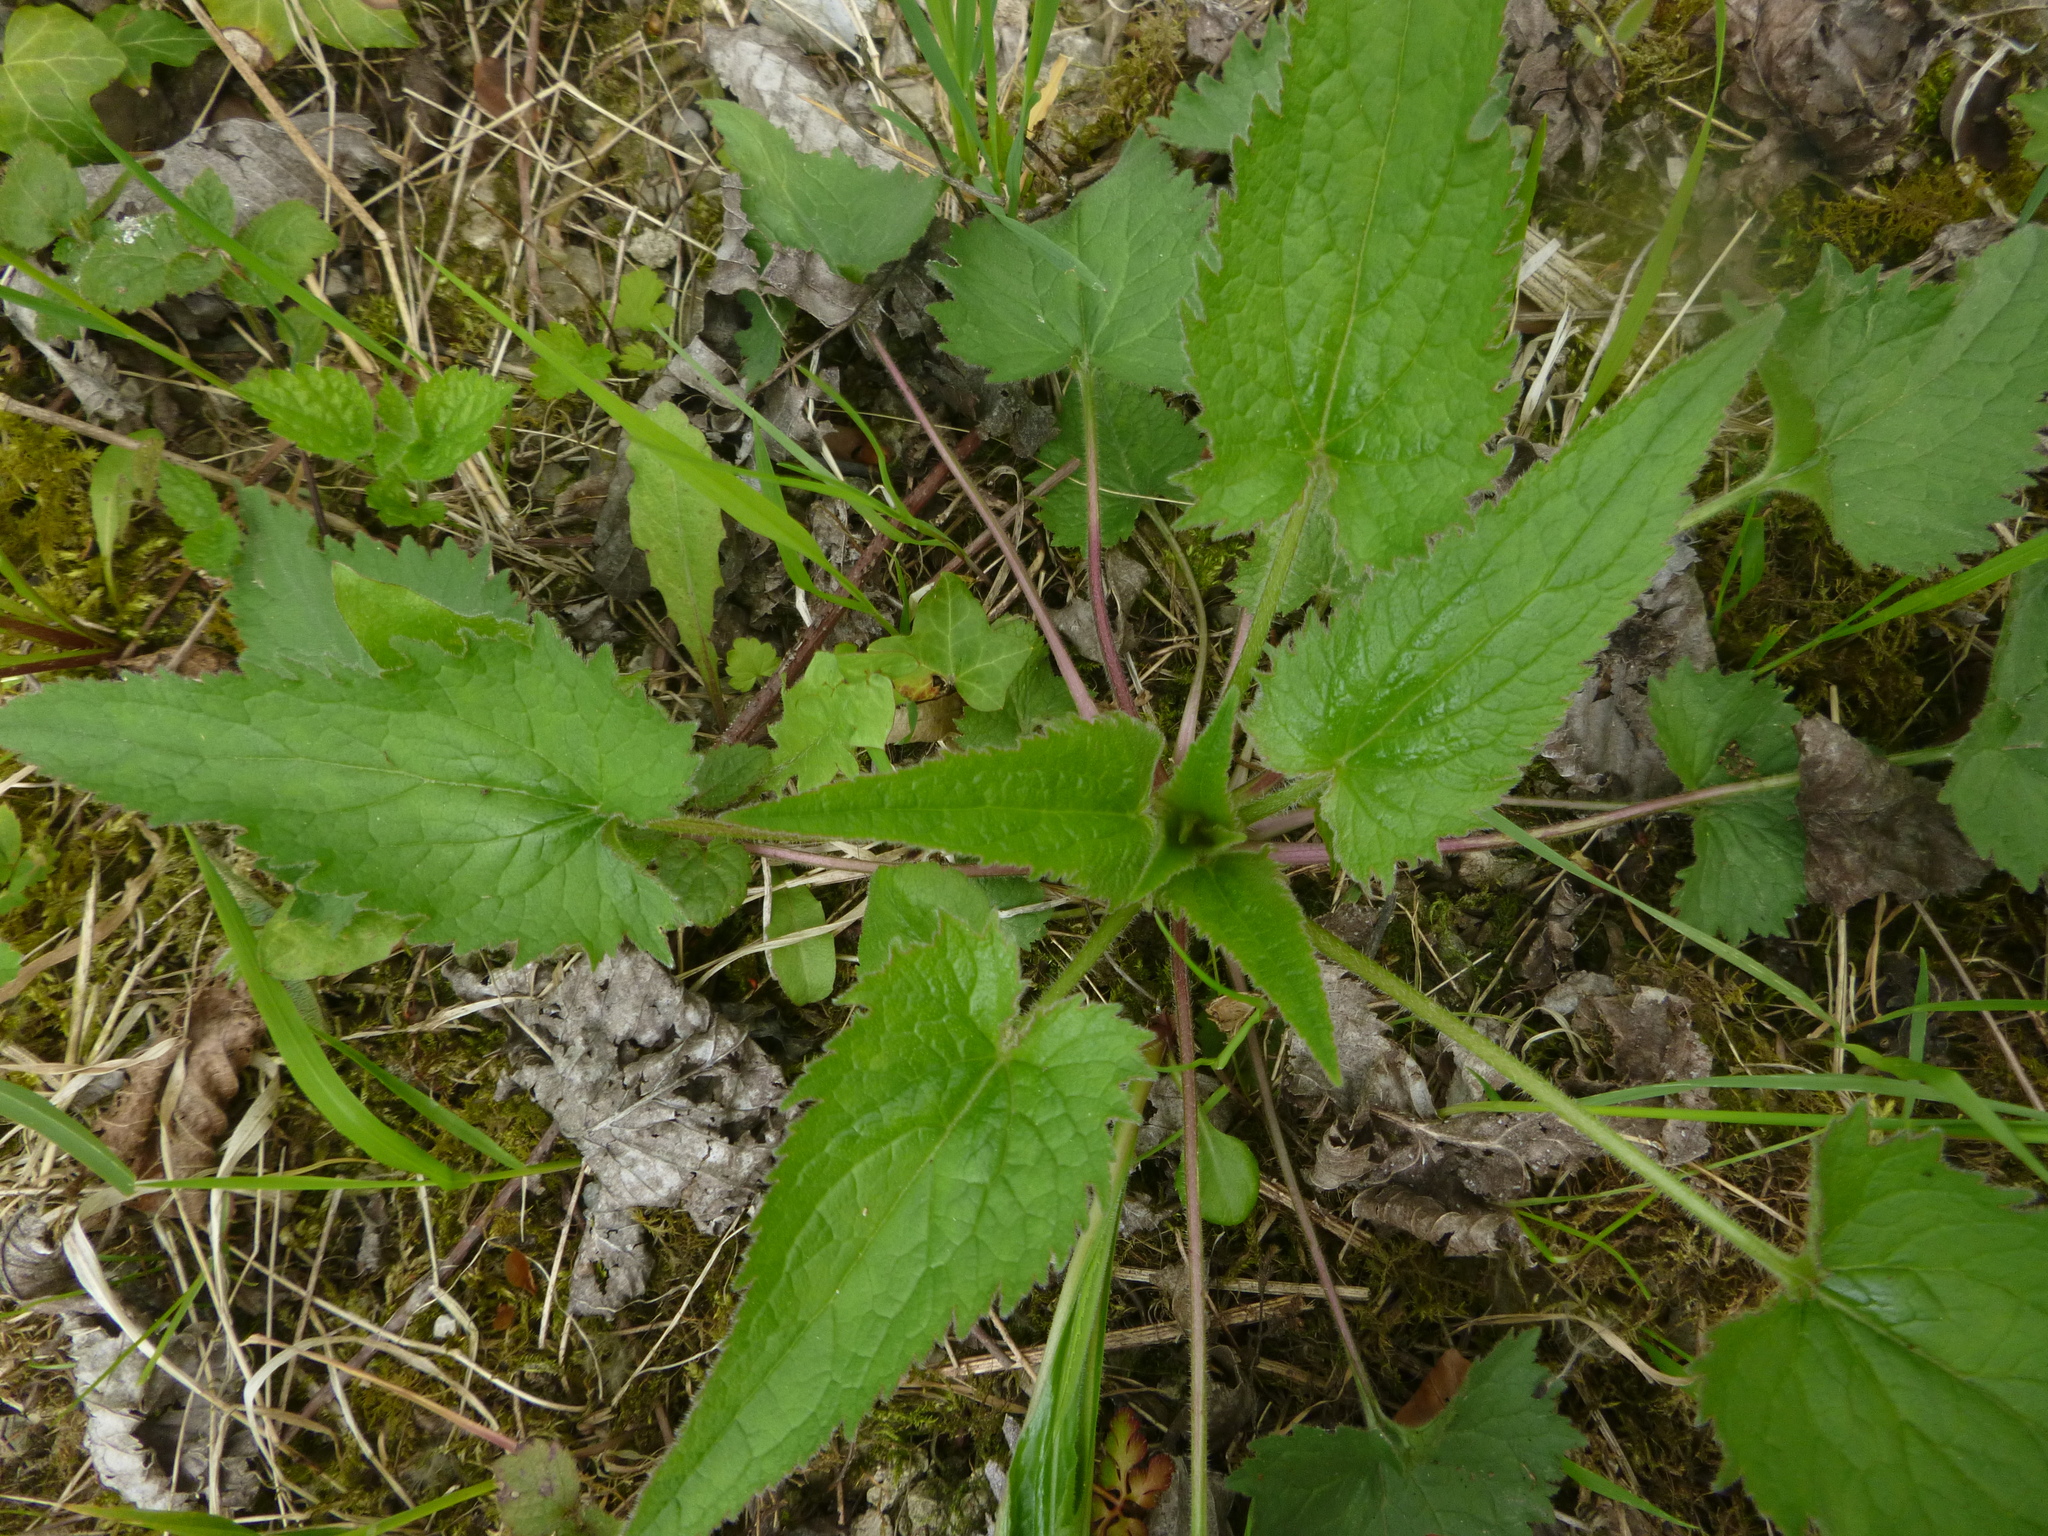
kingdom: Plantae
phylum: Tracheophyta
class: Magnoliopsida
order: Asterales
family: Campanulaceae
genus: Campanula
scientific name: Campanula trachelium
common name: Nettle-leaved bellflower
